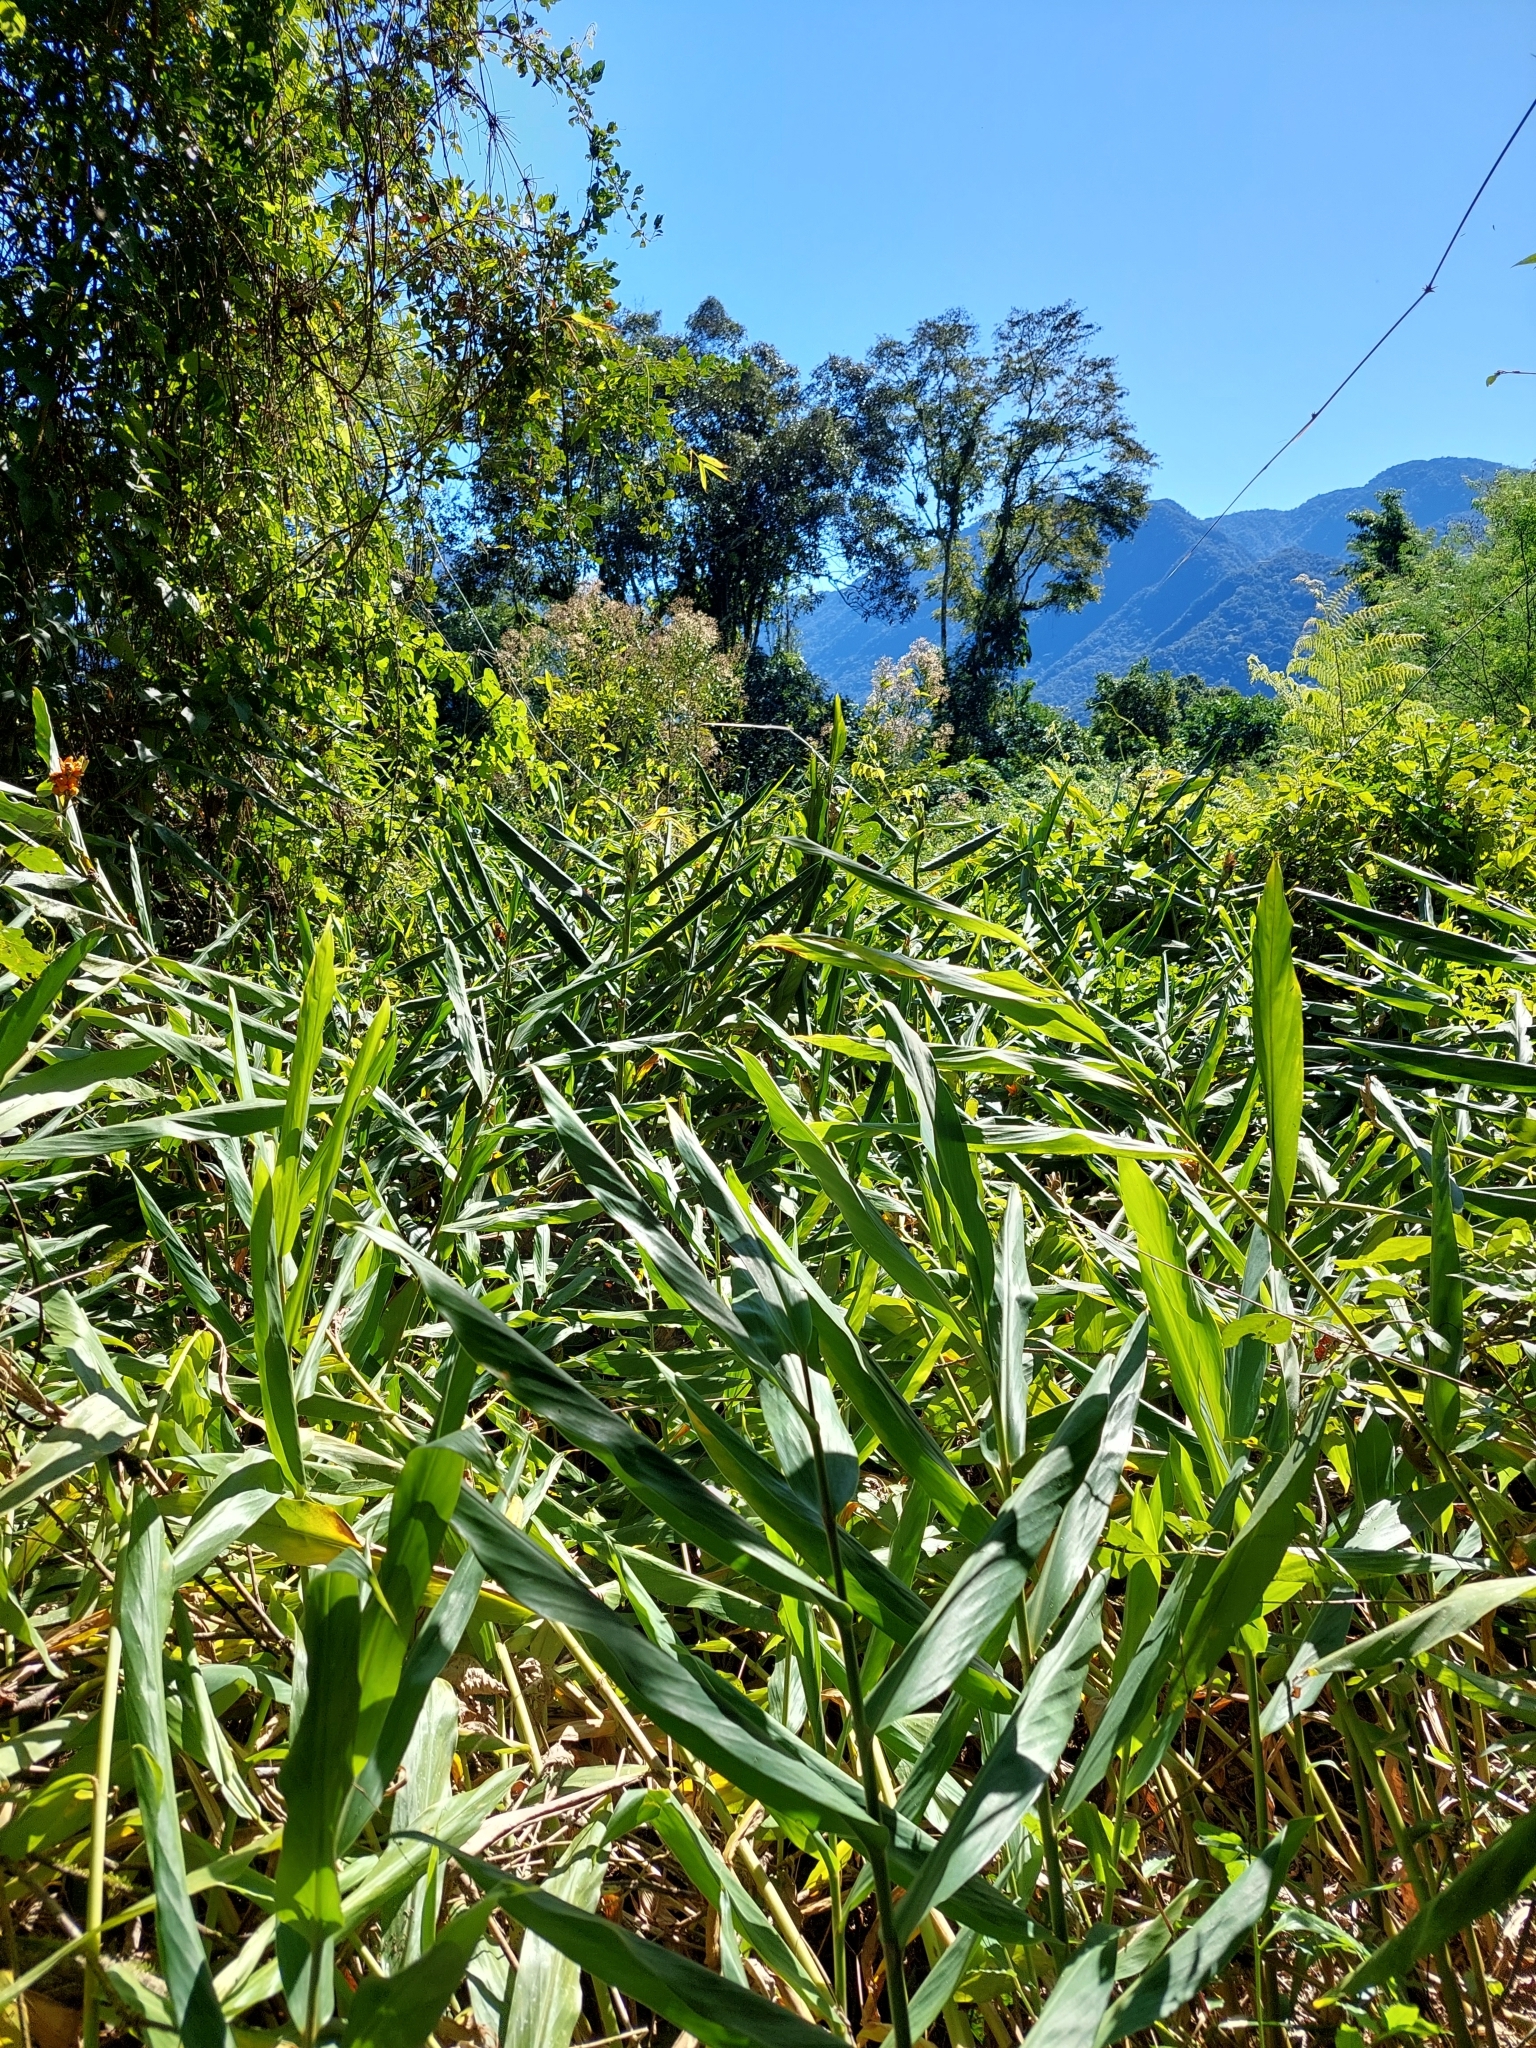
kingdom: Plantae
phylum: Tracheophyta
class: Liliopsida
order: Zingiberales
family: Zingiberaceae
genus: Hedychium
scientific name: Hedychium coronarium
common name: White garland-lily
